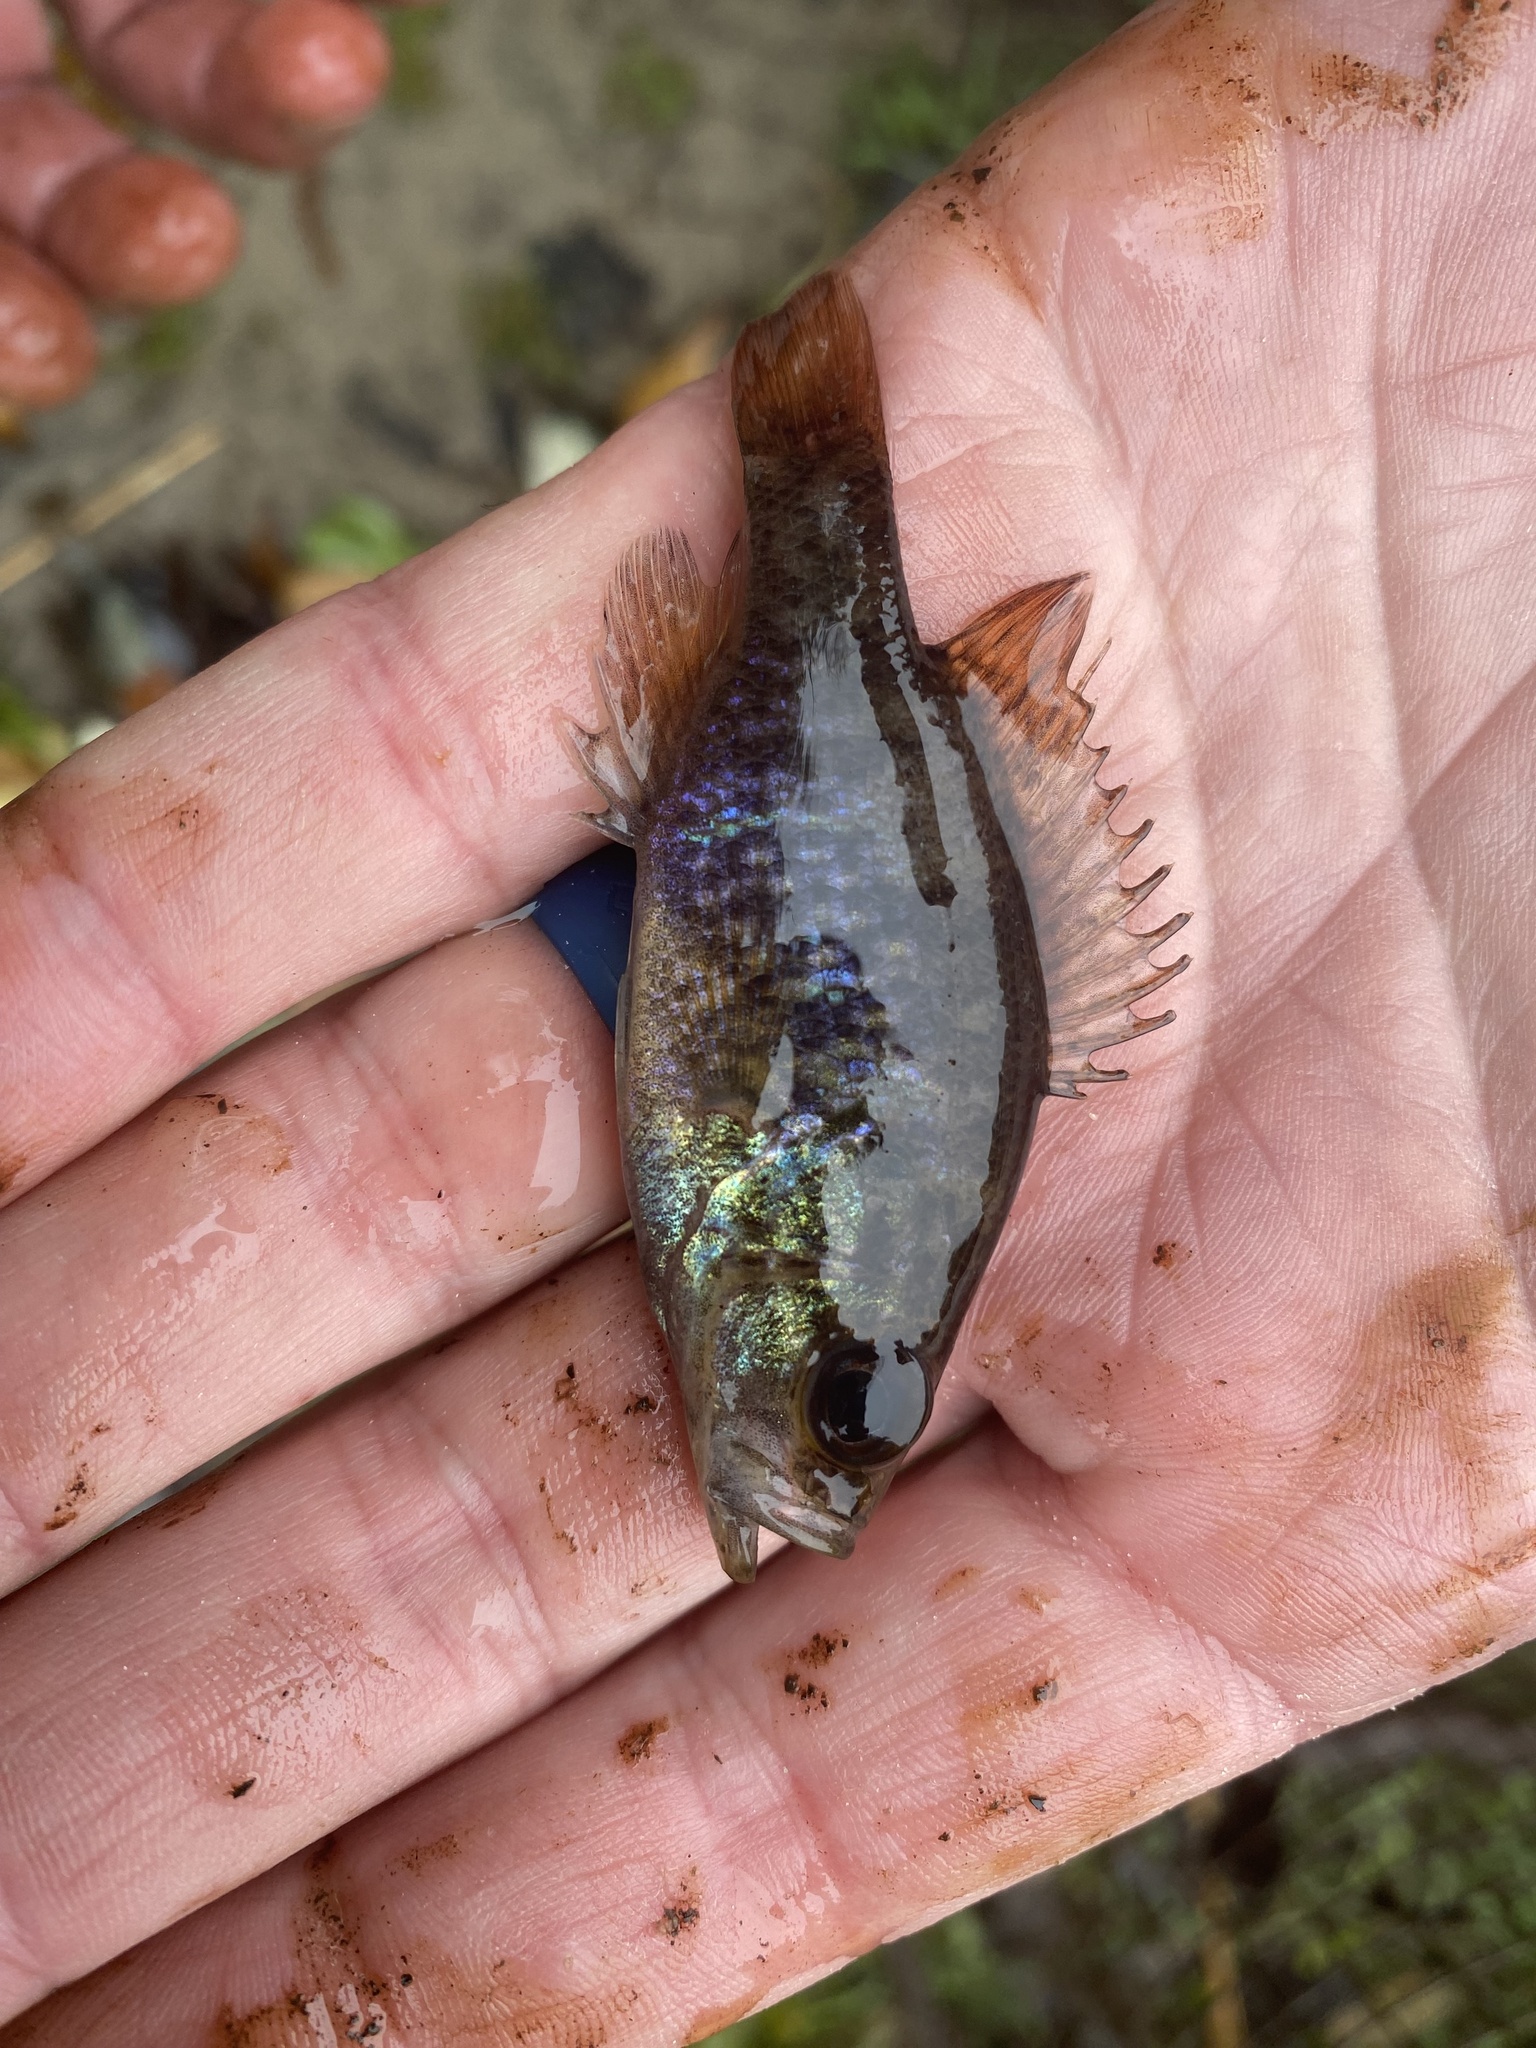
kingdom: Animalia
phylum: Chordata
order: Perciformes
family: Centrarchidae
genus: Lepomis
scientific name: Lepomis gulosus
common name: Warmouth
